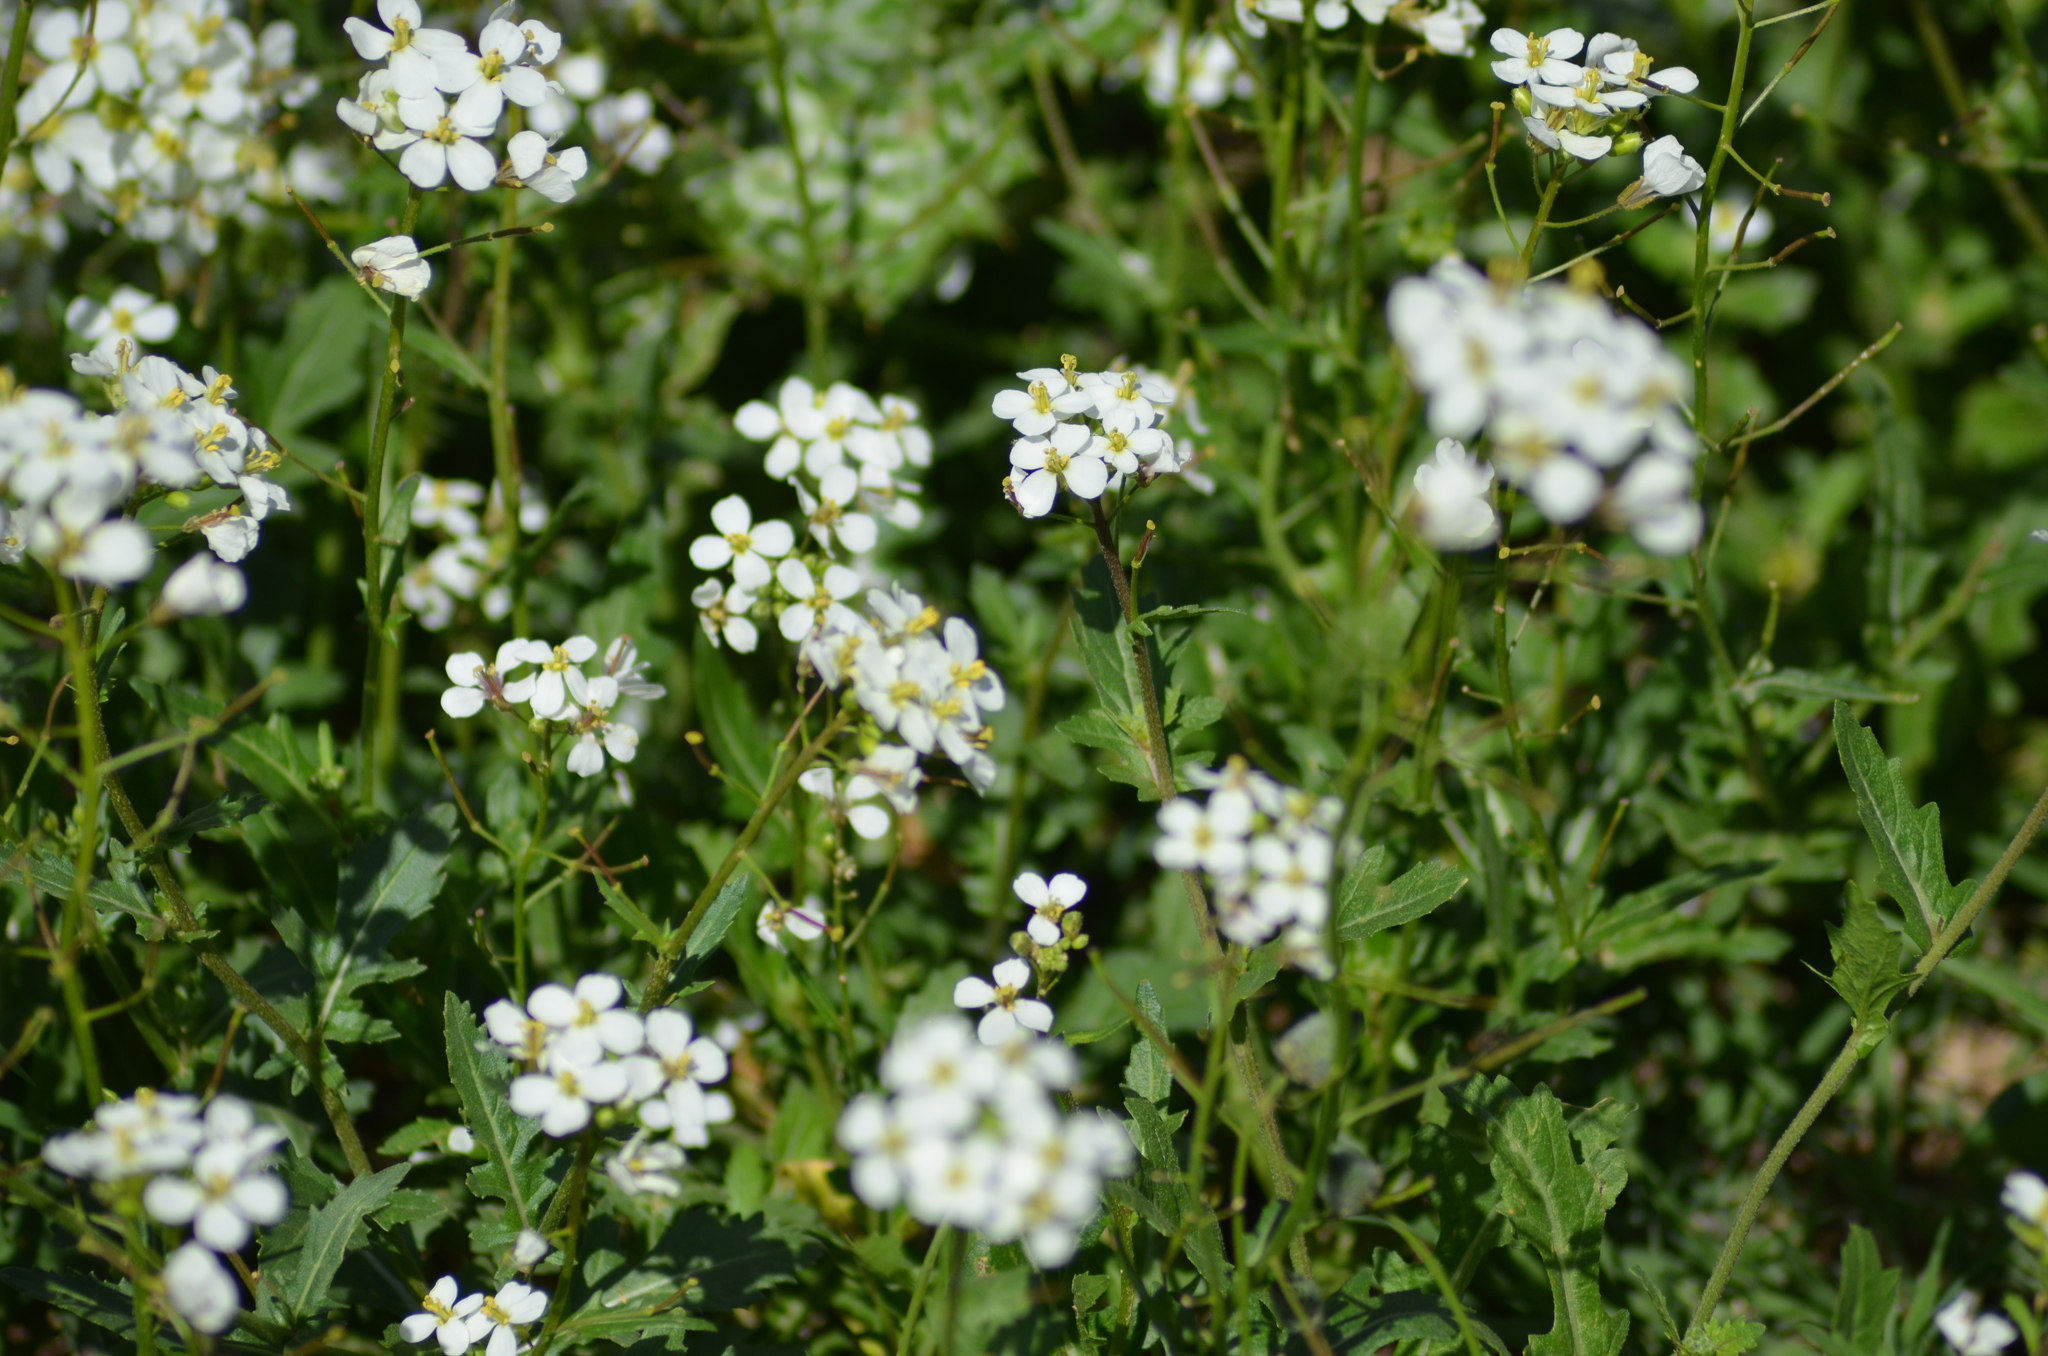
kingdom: Plantae
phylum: Tracheophyta
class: Magnoliopsida
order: Brassicales
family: Brassicaceae
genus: Diplotaxis
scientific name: Diplotaxis erucoides
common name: White rocket
